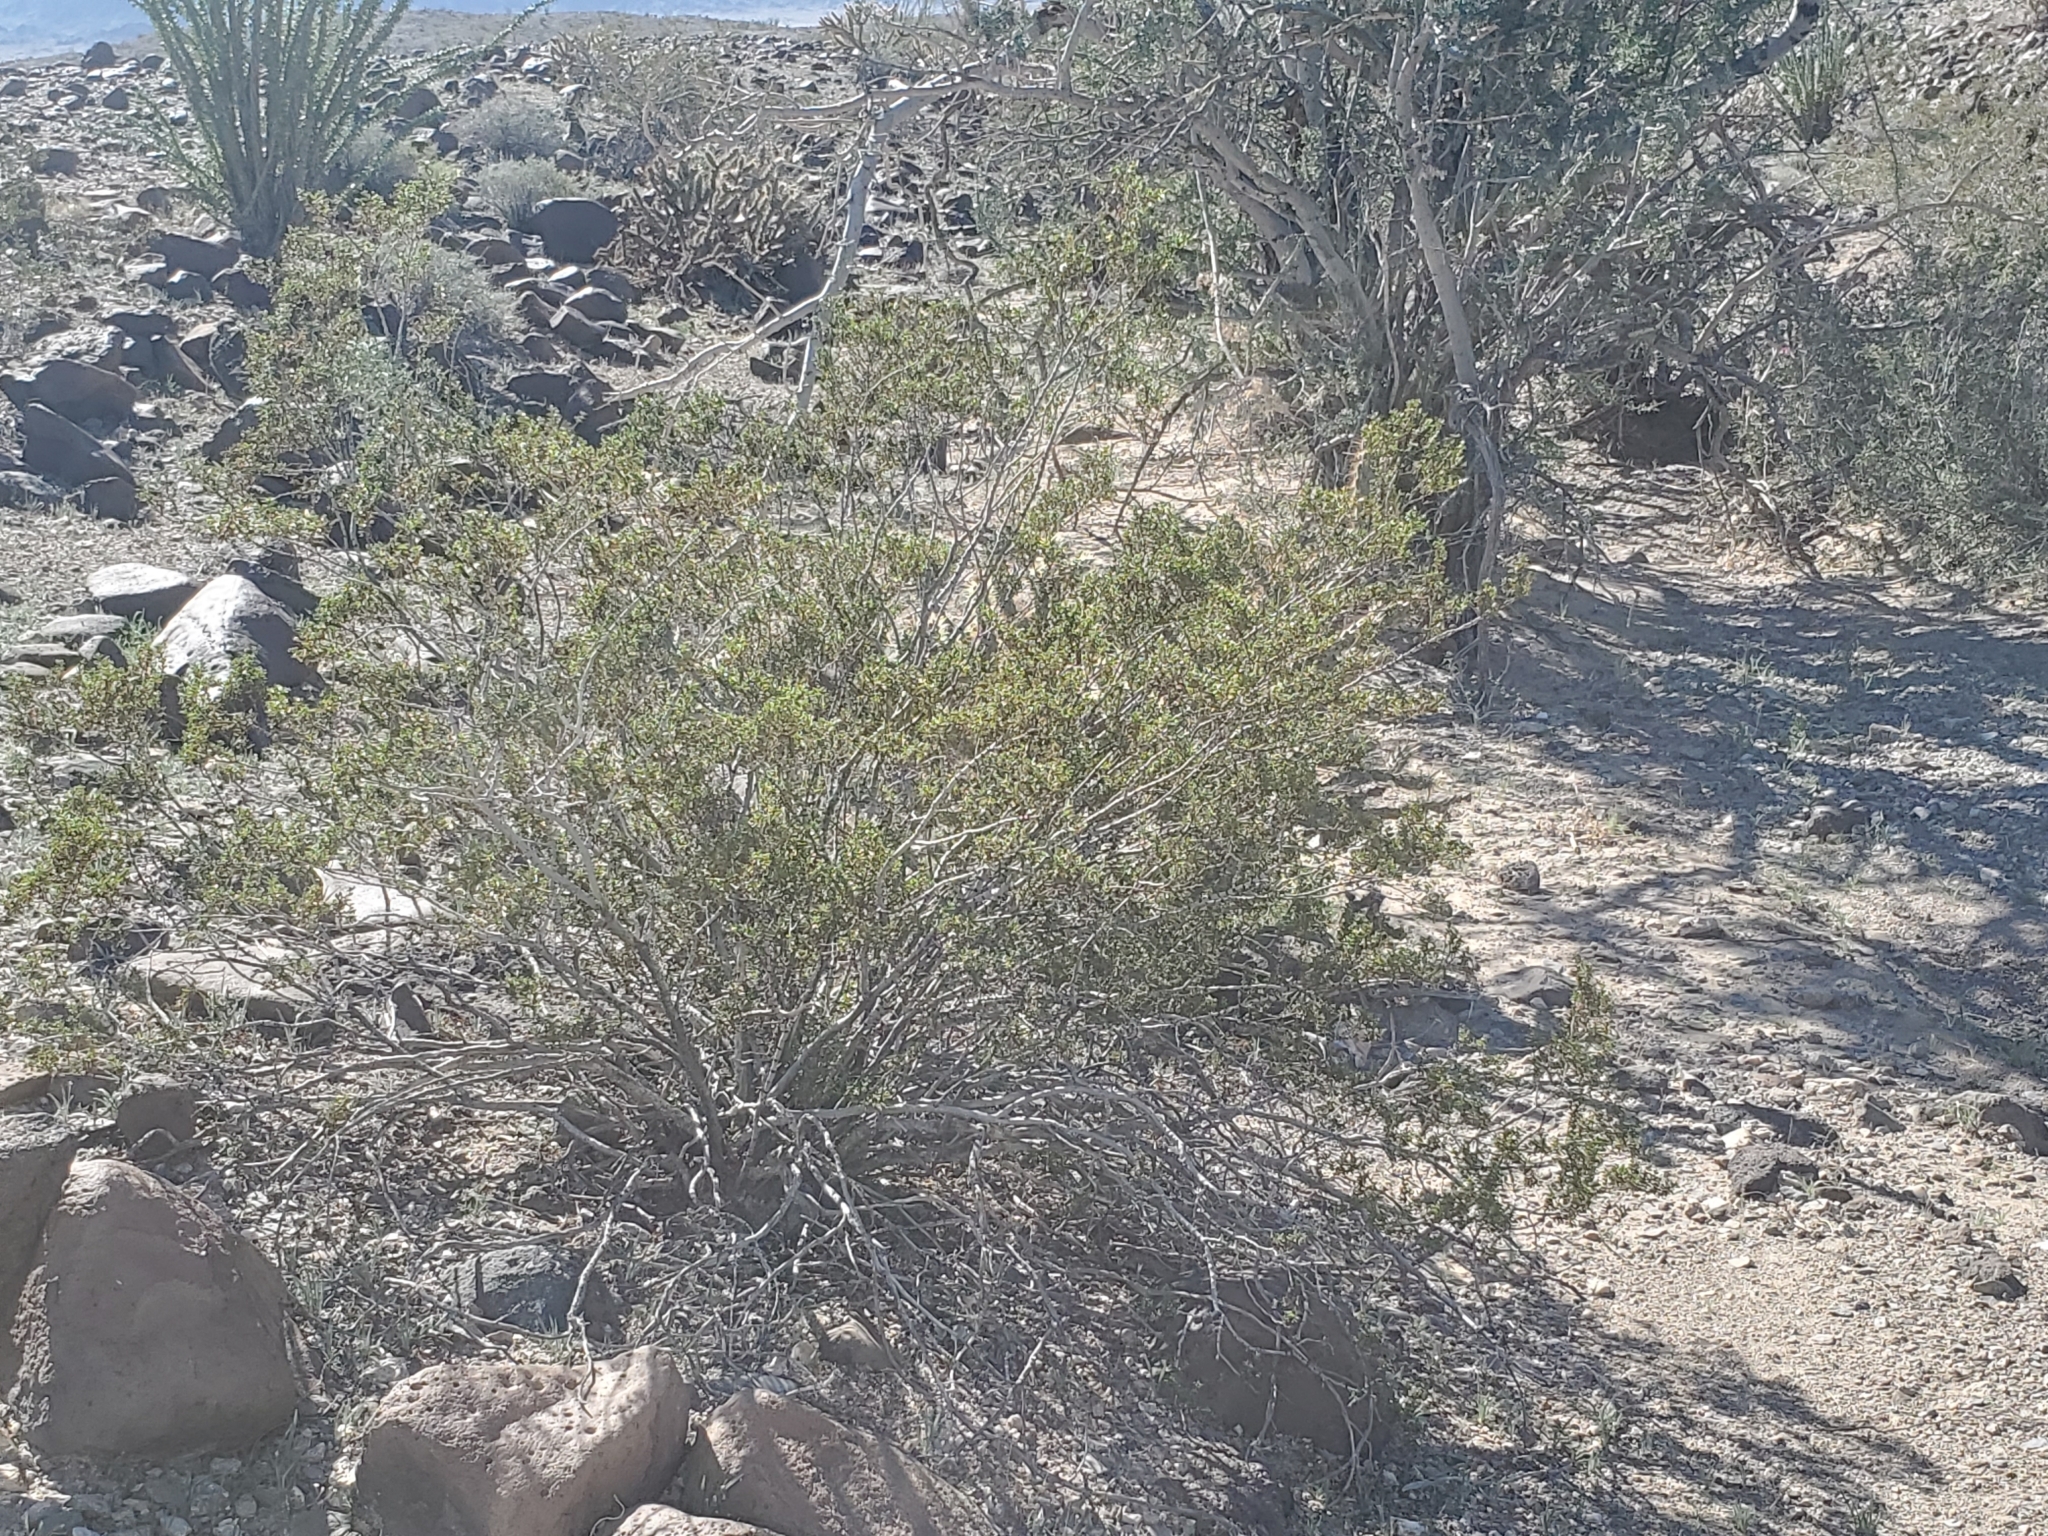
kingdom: Plantae
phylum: Tracheophyta
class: Magnoliopsida
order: Zygophyllales
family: Zygophyllaceae
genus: Larrea
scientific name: Larrea tridentata
